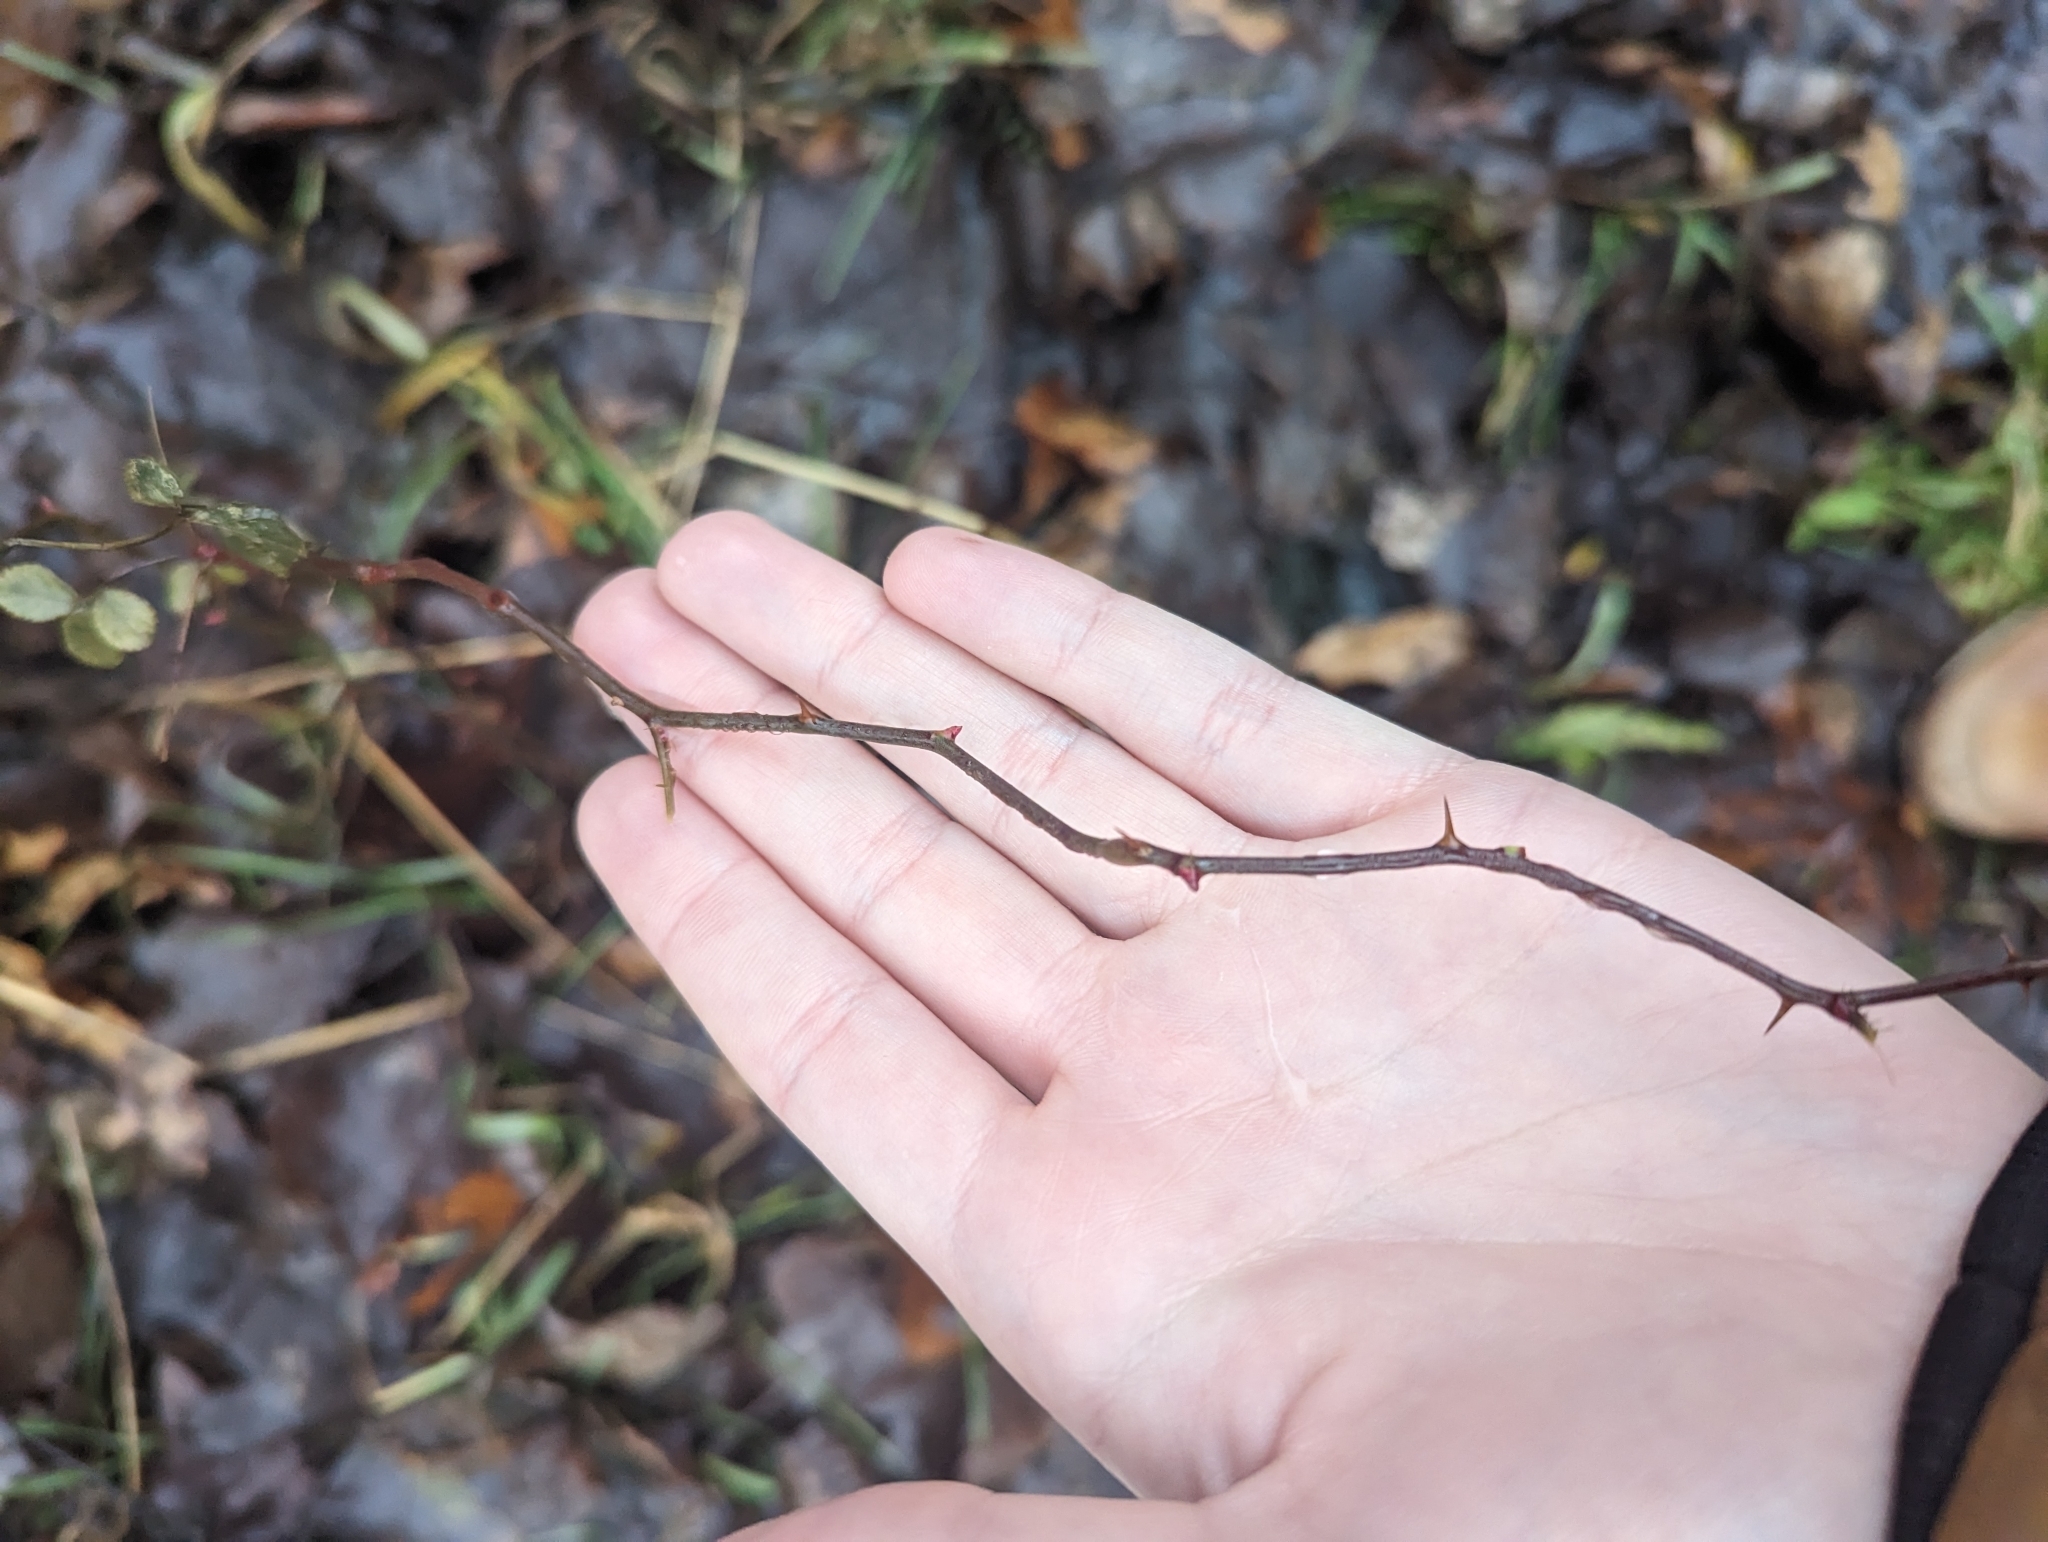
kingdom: Plantae
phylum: Tracheophyta
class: Magnoliopsida
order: Rosales
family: Rosaceae
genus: Rosa
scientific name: Rosa multiflora
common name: Multiflora rose
